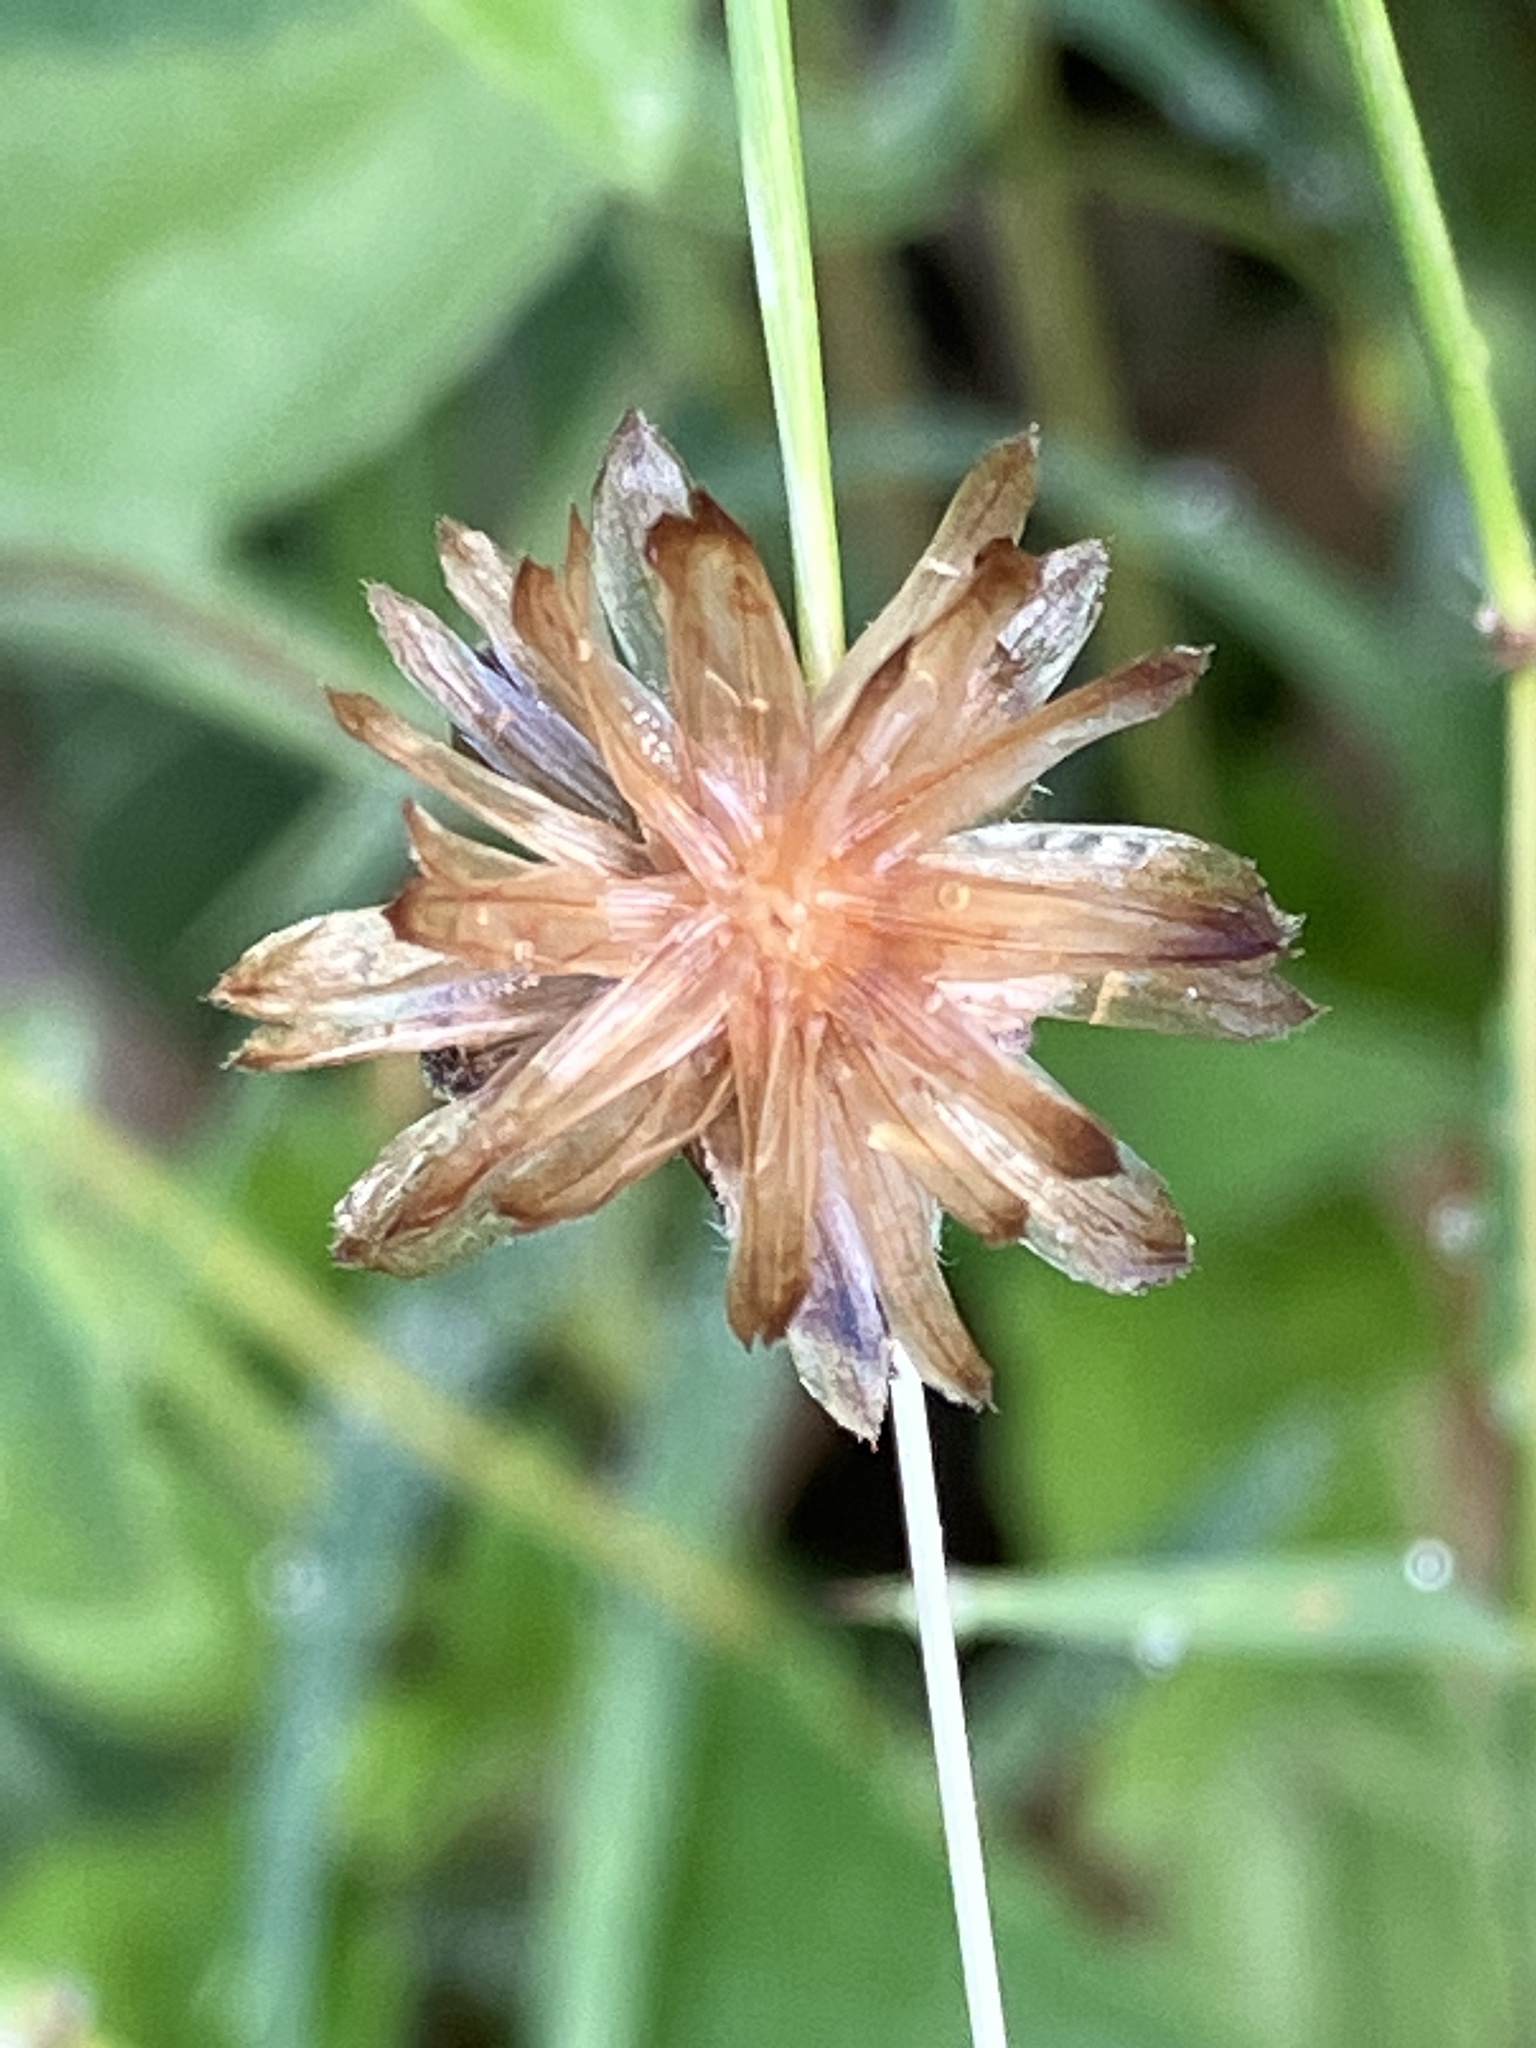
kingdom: Plantae
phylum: Tracheophyta
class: Magnoliopsida
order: Asterales
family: Asteraceae
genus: Tridax
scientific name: Tridax procumbens
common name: Coatbuttons
